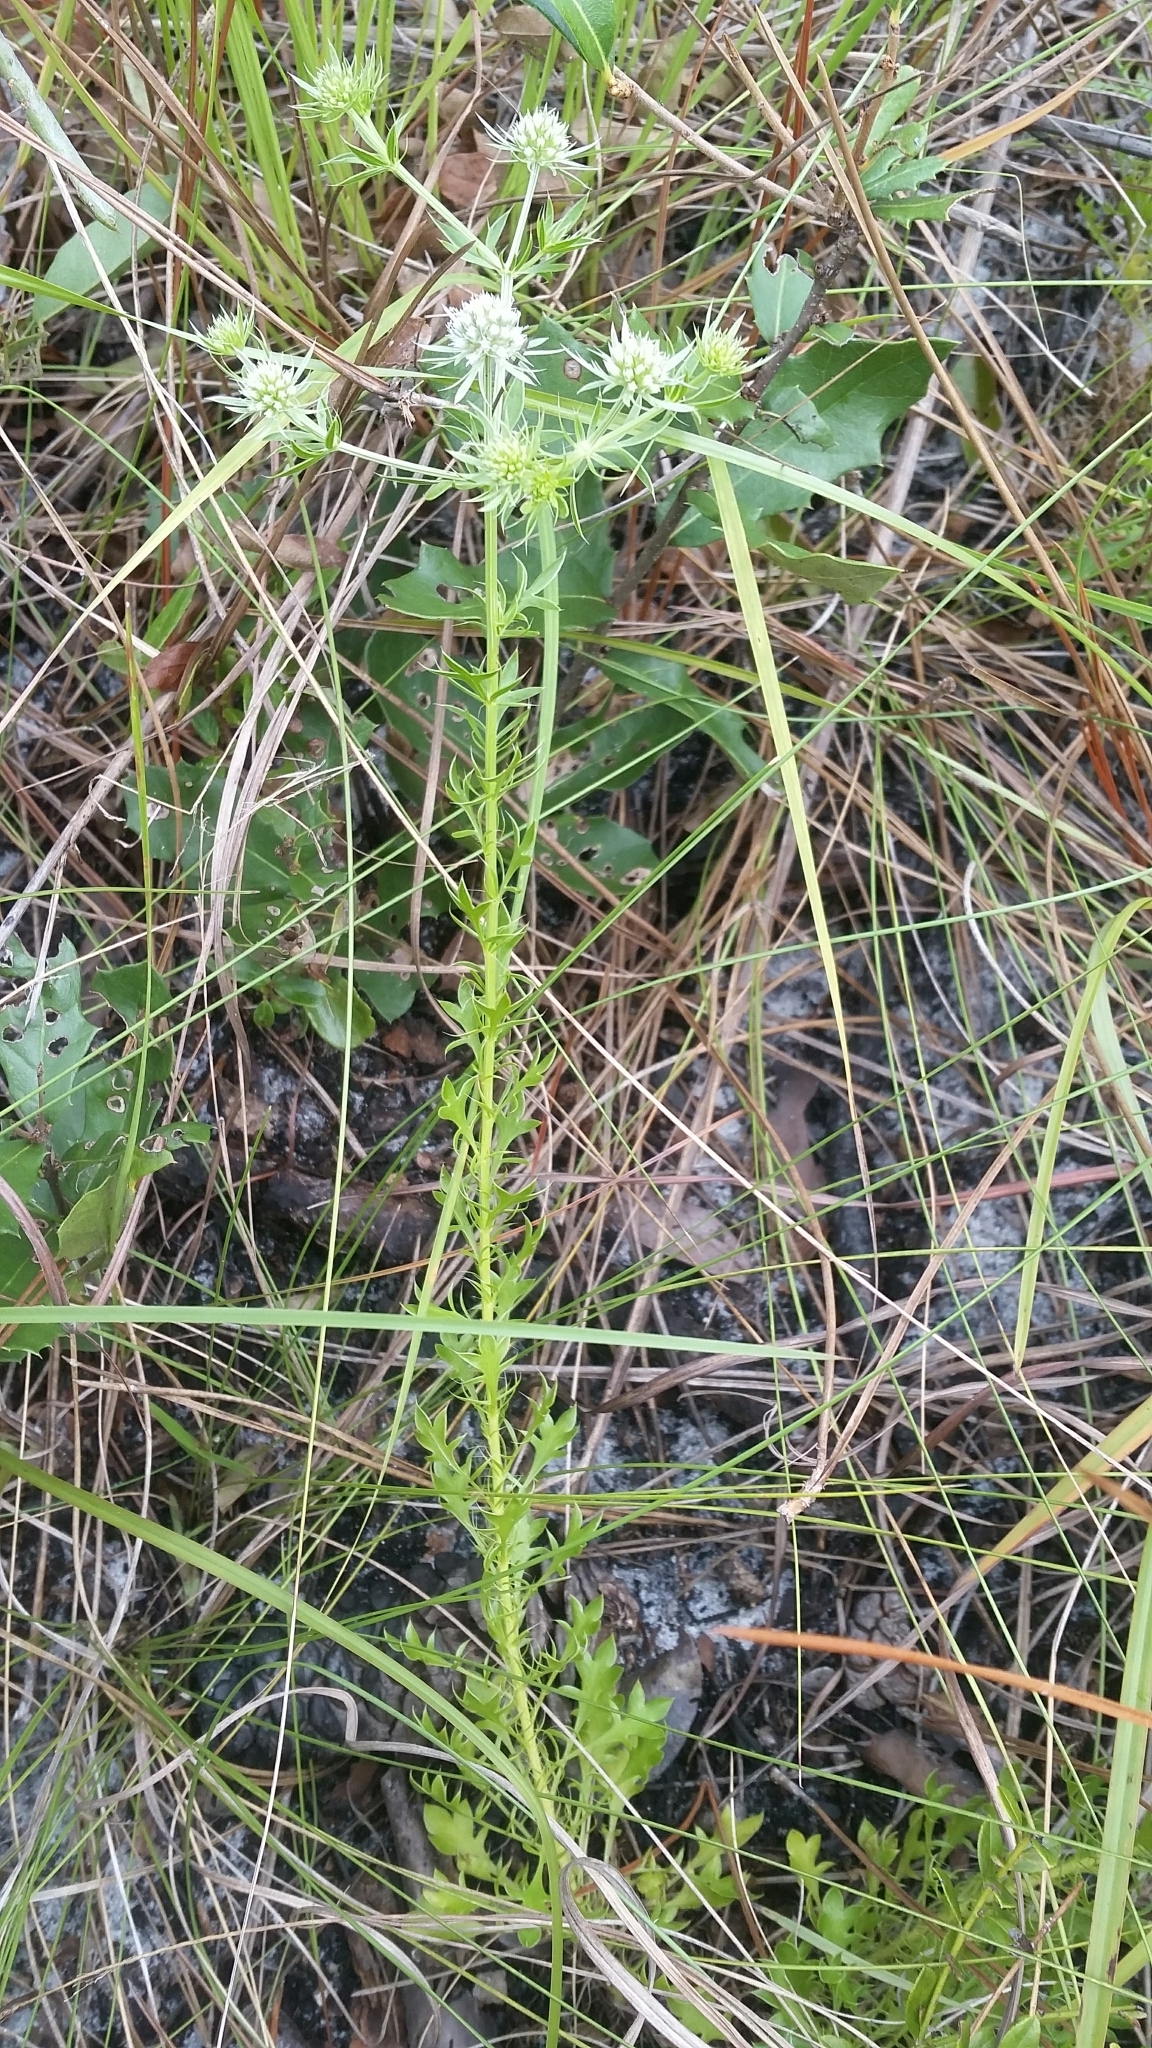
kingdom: Plantae
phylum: Tracheophyta
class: Magnoliopsida
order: Apiales
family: Apiaceae
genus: Eryngium
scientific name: Eryngium aromaticum
